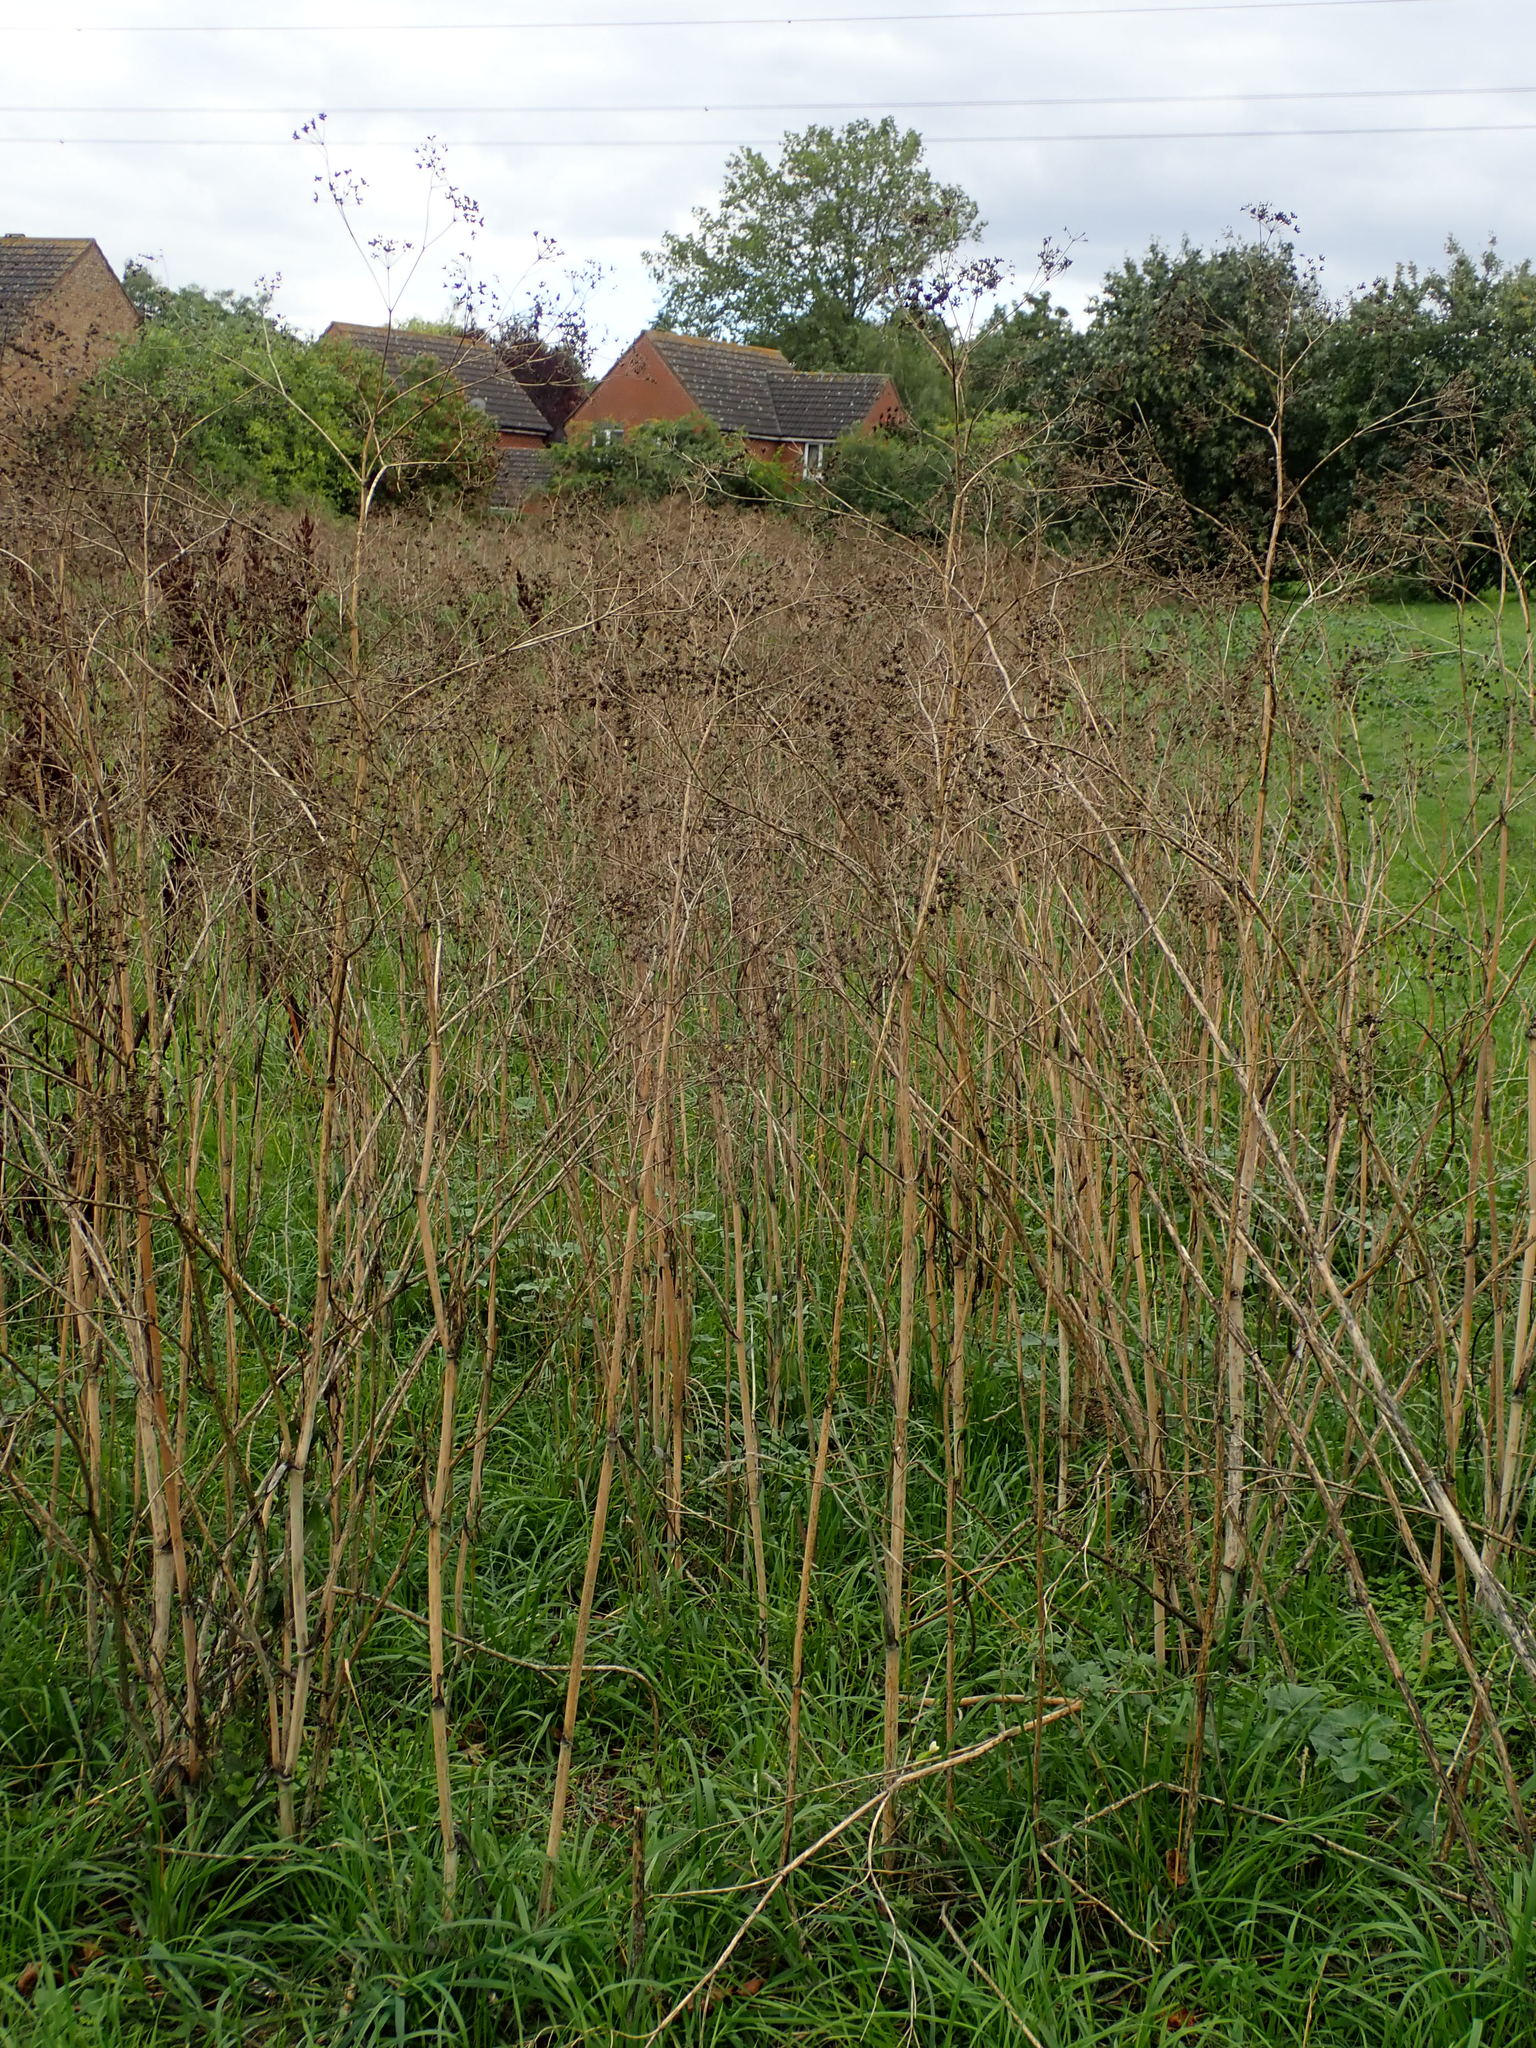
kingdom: Plantae
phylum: Tracheophyta
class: Magnoliopsida
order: Apiales
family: Apiaceae
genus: Conium
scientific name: Conium maculatum
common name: Hemlock
